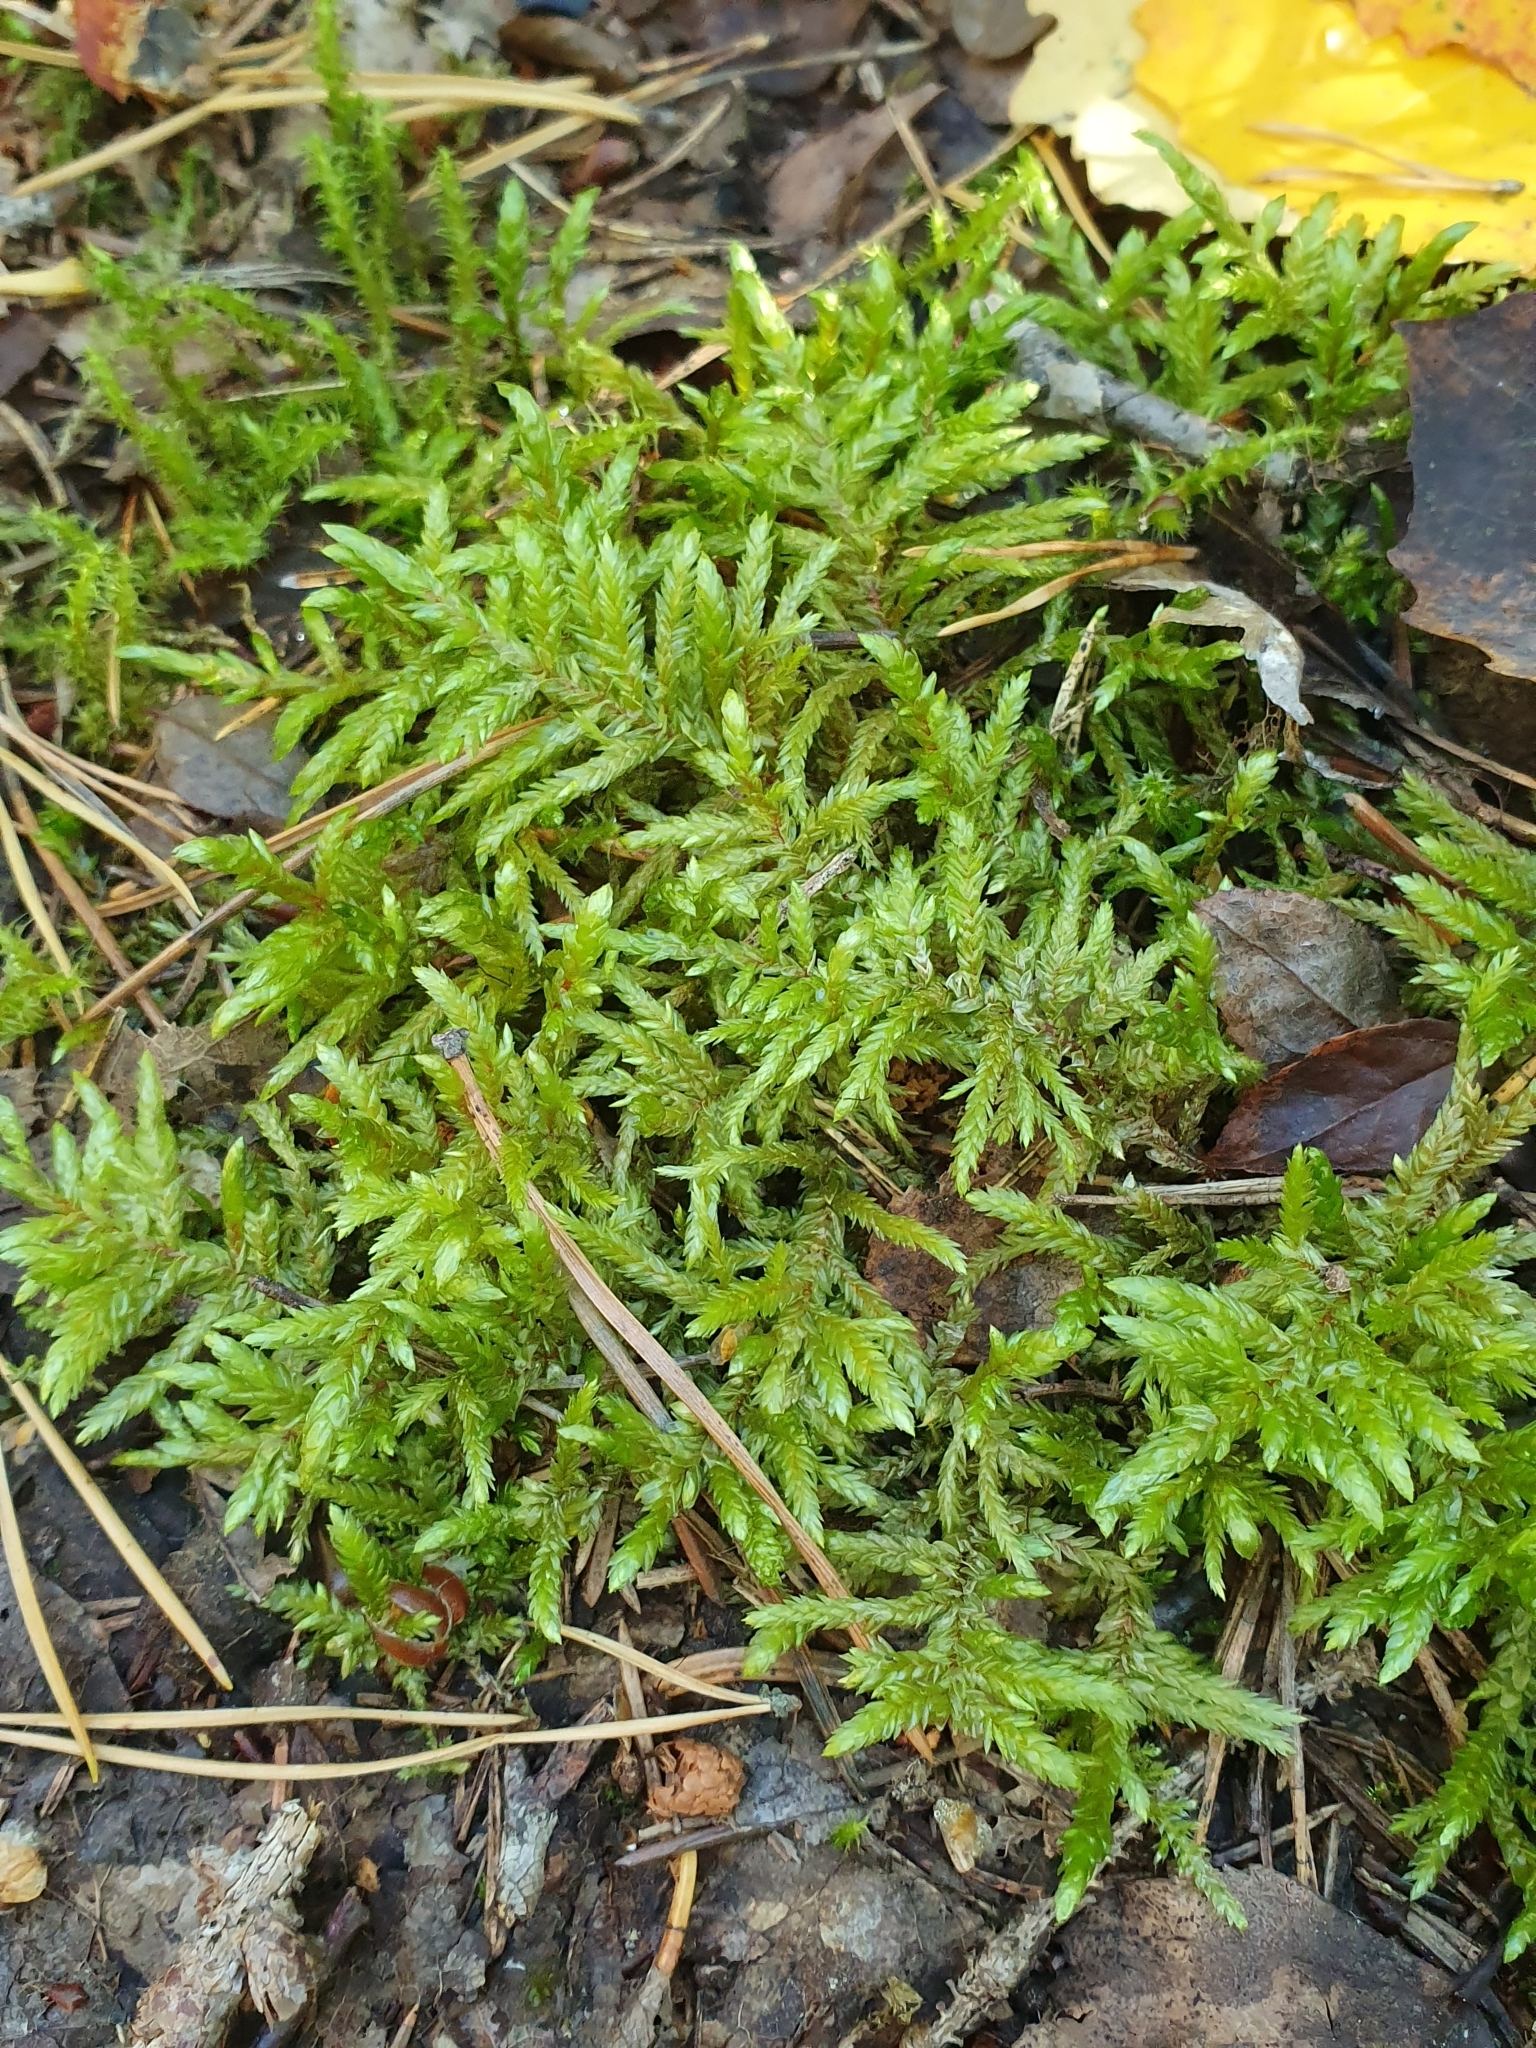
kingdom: Plantae
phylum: Bryophyta
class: Bryopsida
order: Hypnales
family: Hylocomiaceae
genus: Pleurozium
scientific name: Pleurozium schreberi
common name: Red-stemmed feather moss
